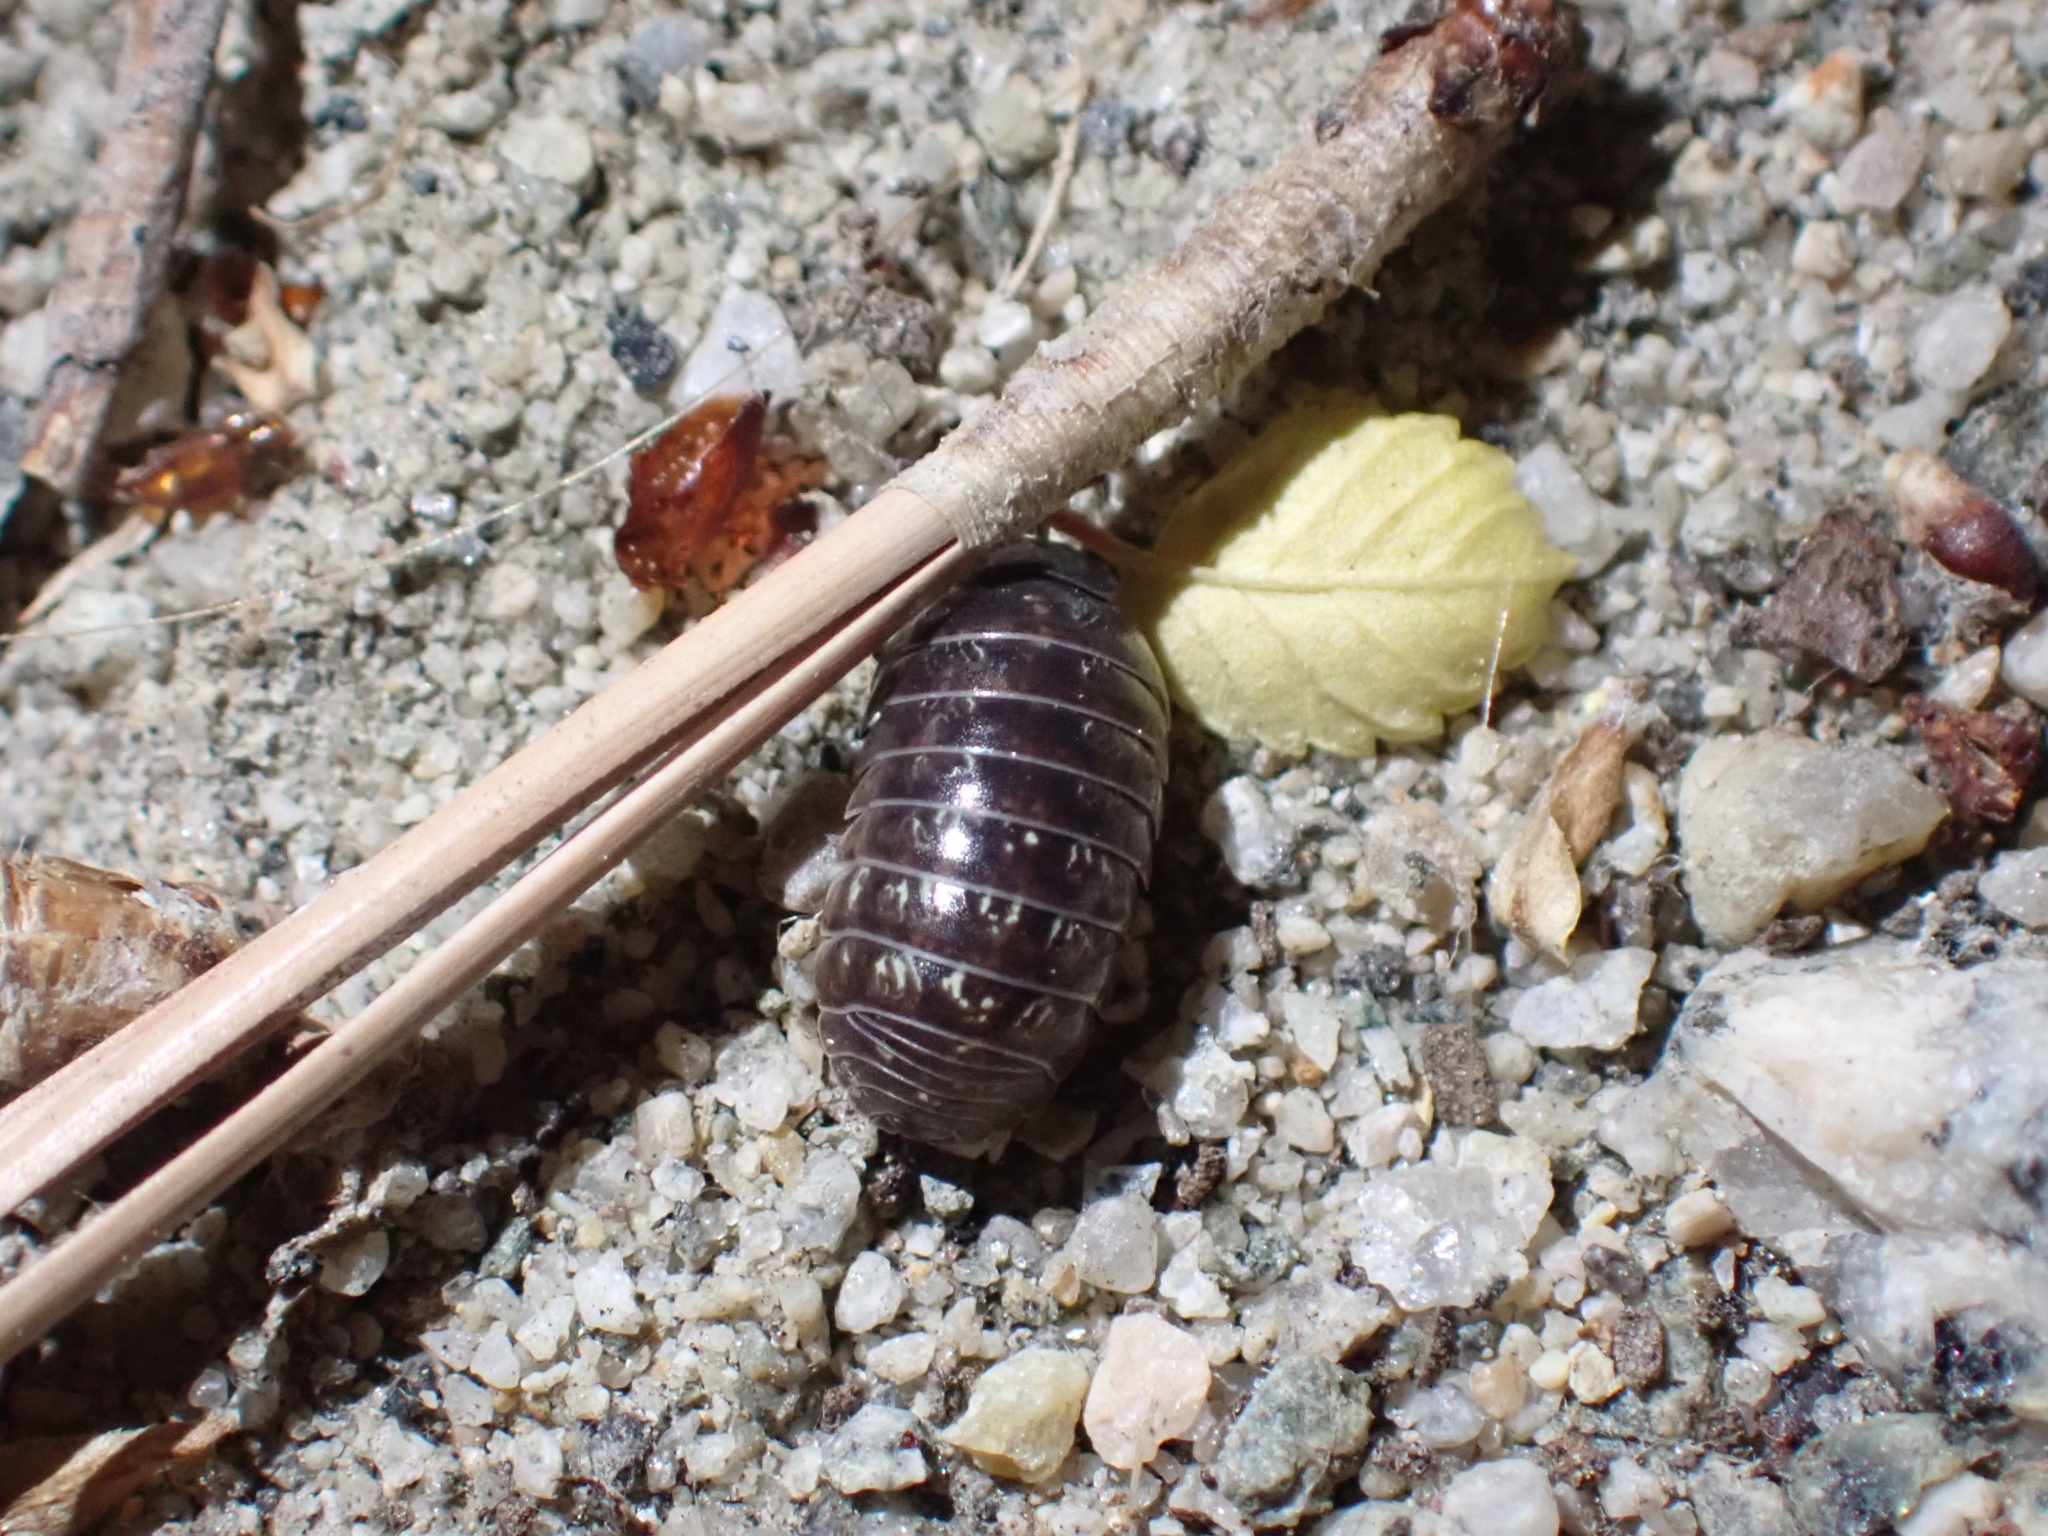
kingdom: Animalia
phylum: Arthropoda
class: Malacostraca
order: Isopoda
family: Armadillidiidae
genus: Armadillidium
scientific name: Armadillidium vulgare
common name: Common pill woodlouse
